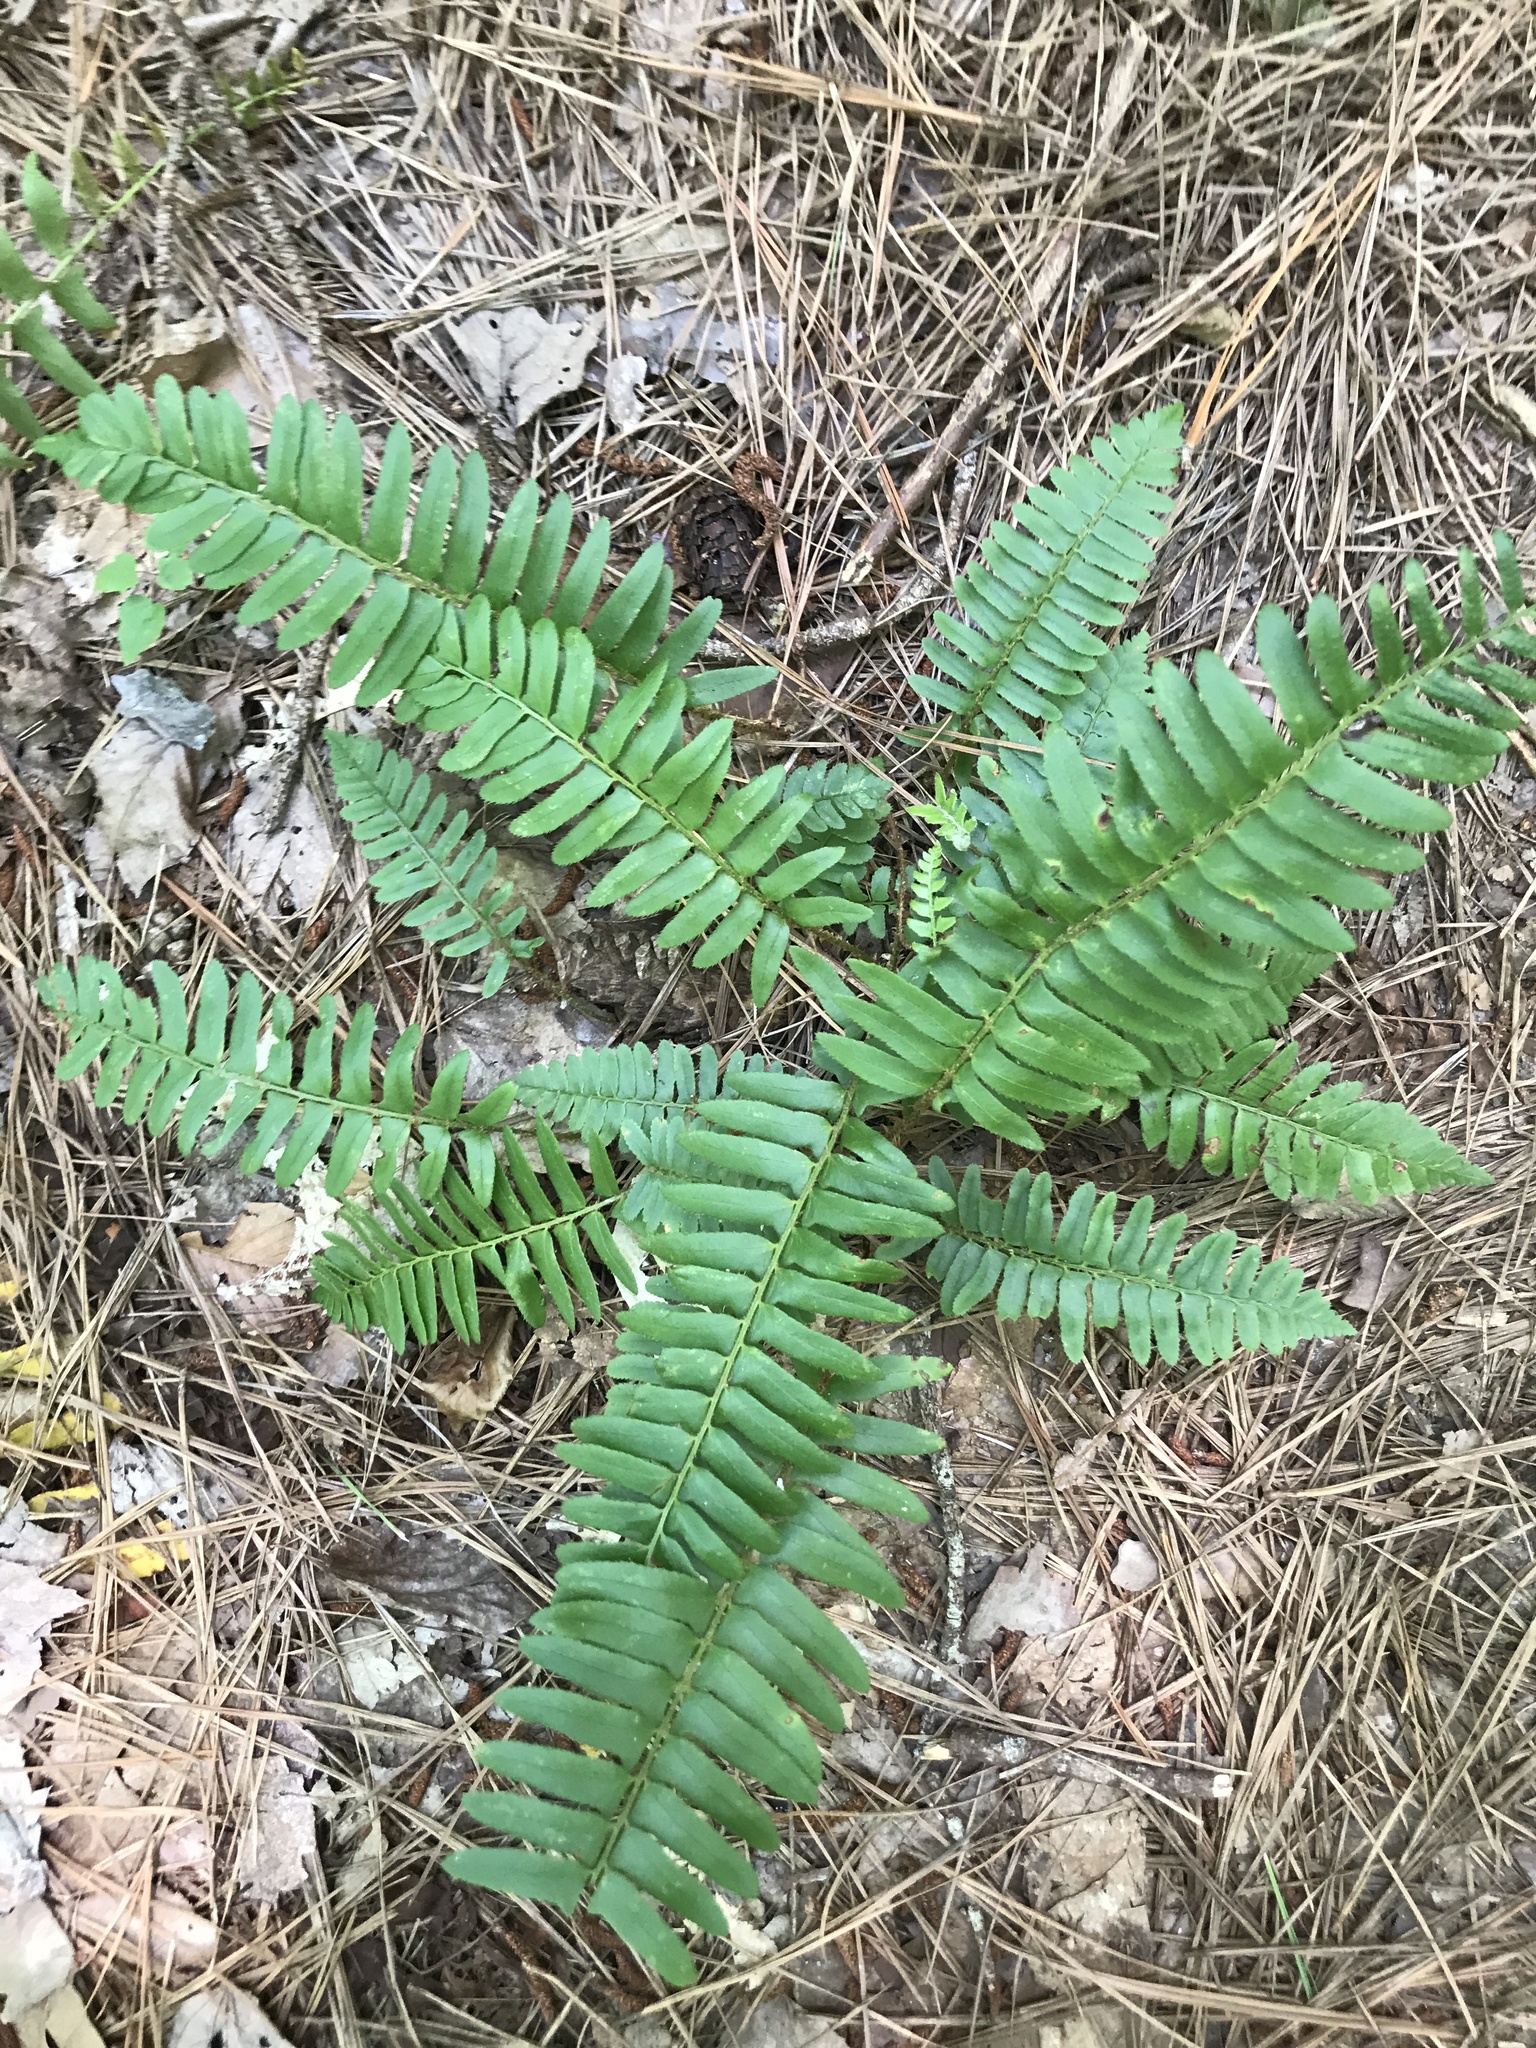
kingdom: Plantae
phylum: Tracheophyta
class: Polypodiopsida
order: Polypodiales
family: Dryopteridaceae
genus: Polystichum
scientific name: Polystichum acrostichoides
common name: Christmas fern
